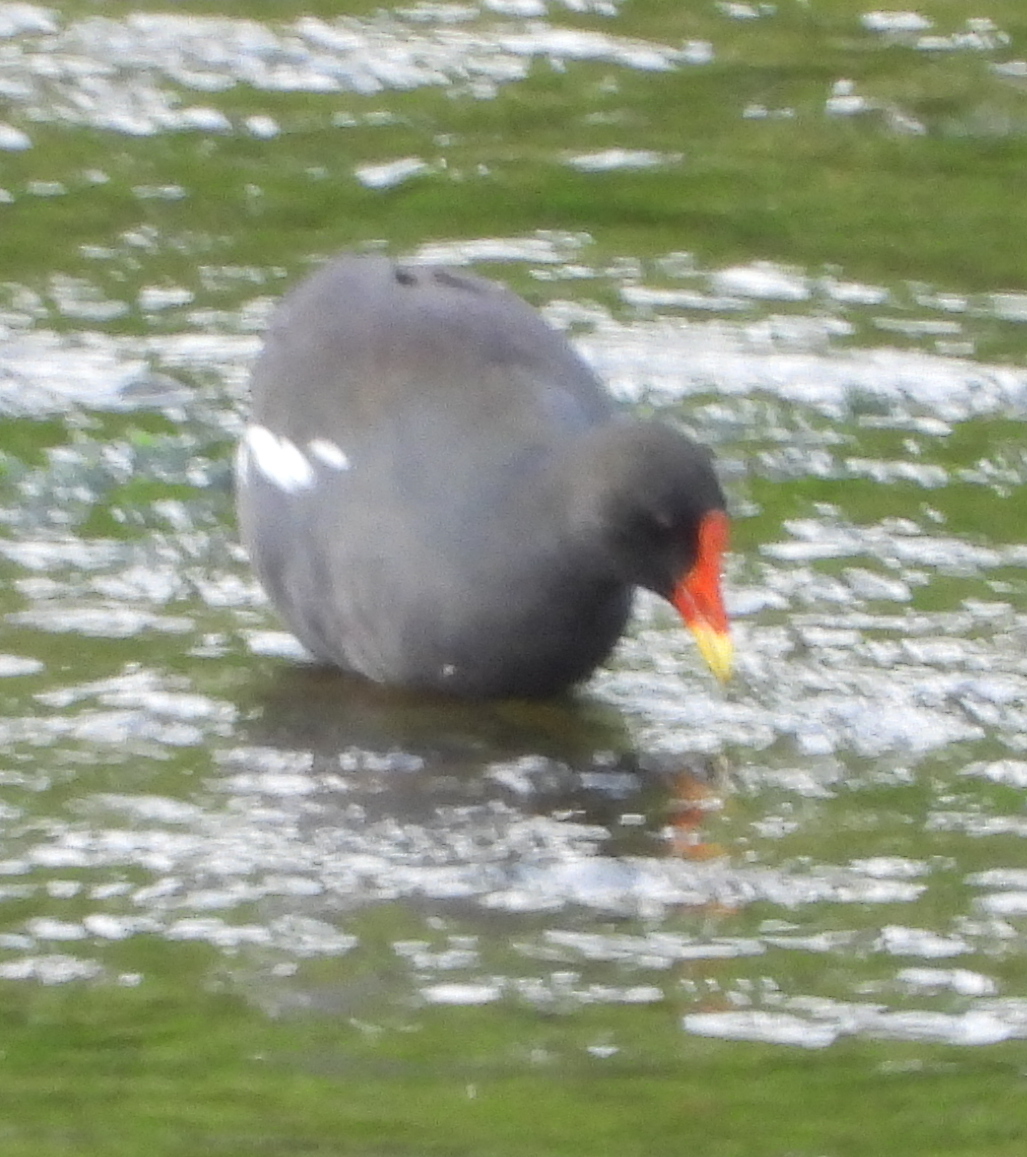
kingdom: Animalia
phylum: Chordata
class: Aves
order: Gruiformes
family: Rallidae
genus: Gallinula
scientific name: Gallinula chloropus
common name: Common moorhen
